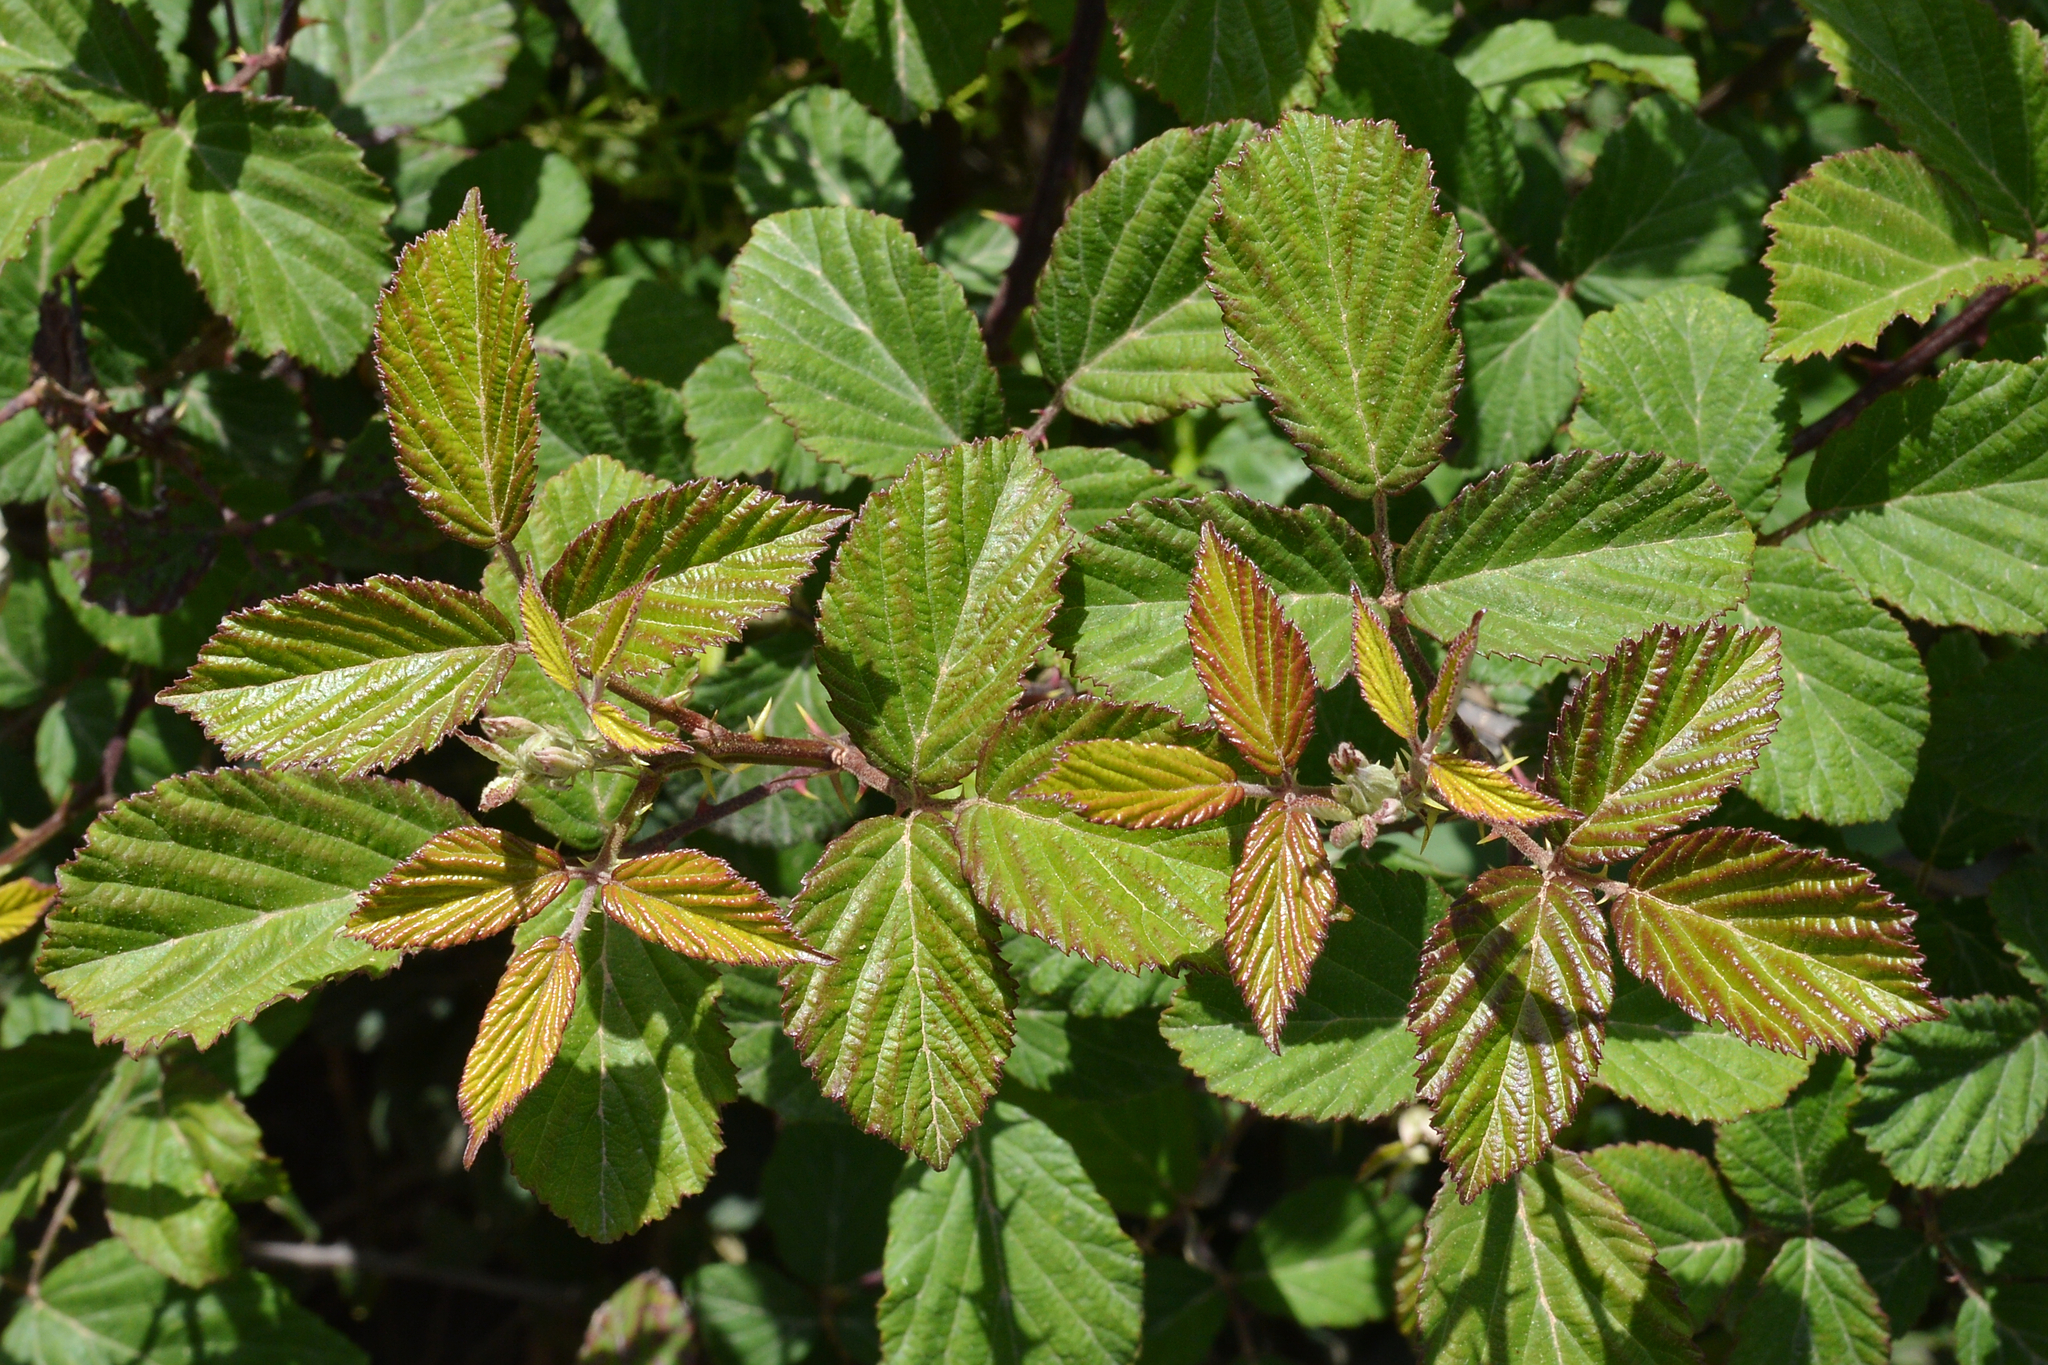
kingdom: Plantae
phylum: Tracheophyta
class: Magnoliopsida
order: Rosales
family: Rosaceae
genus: Rubus
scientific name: Rubus ulmifolius
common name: Elmleaf blackberry
